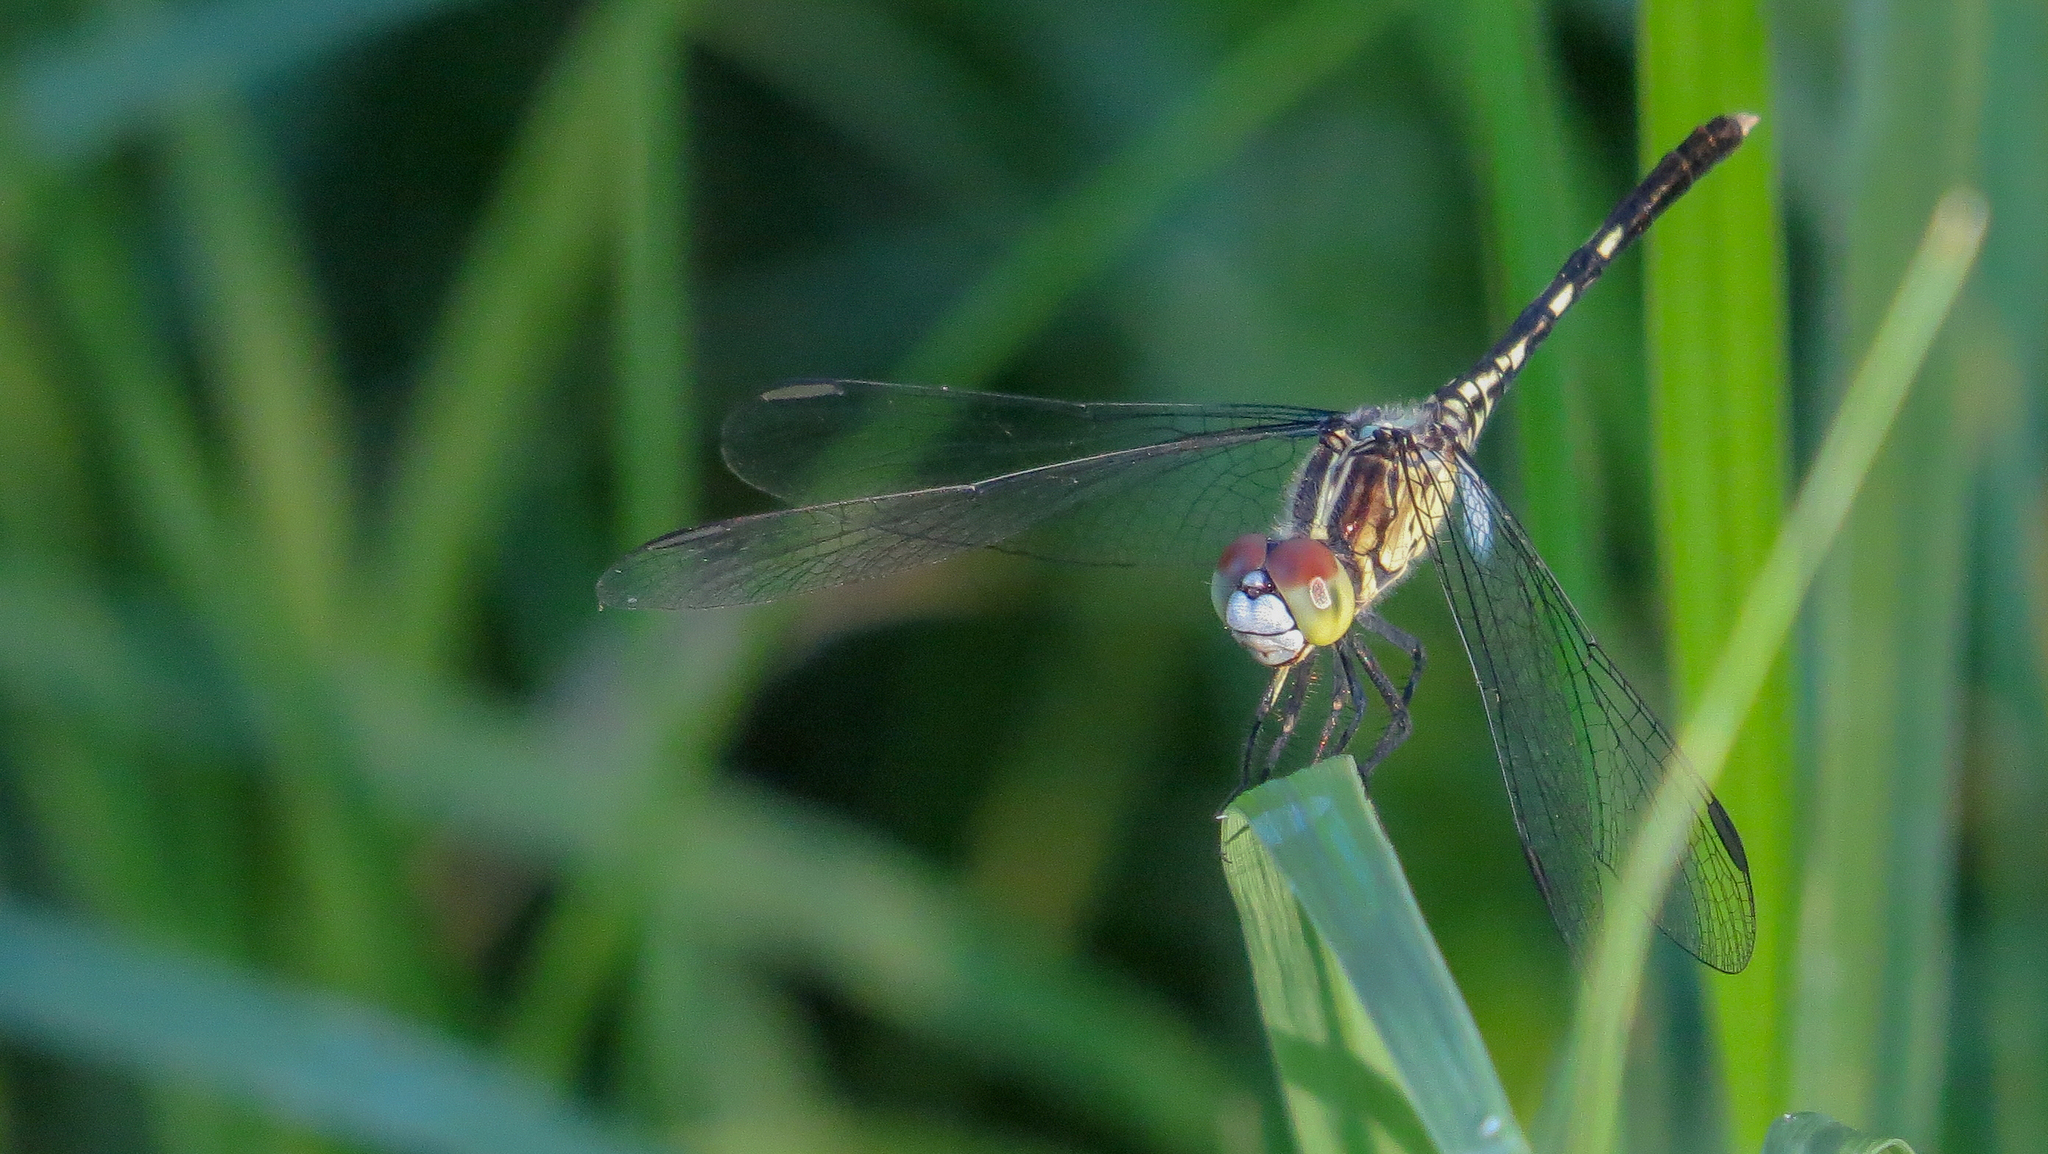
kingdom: Animalia
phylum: Arthropoda
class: Insecta
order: Odonata
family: Libellulidae
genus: Diplacodes
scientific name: Diplacodes trivialis
